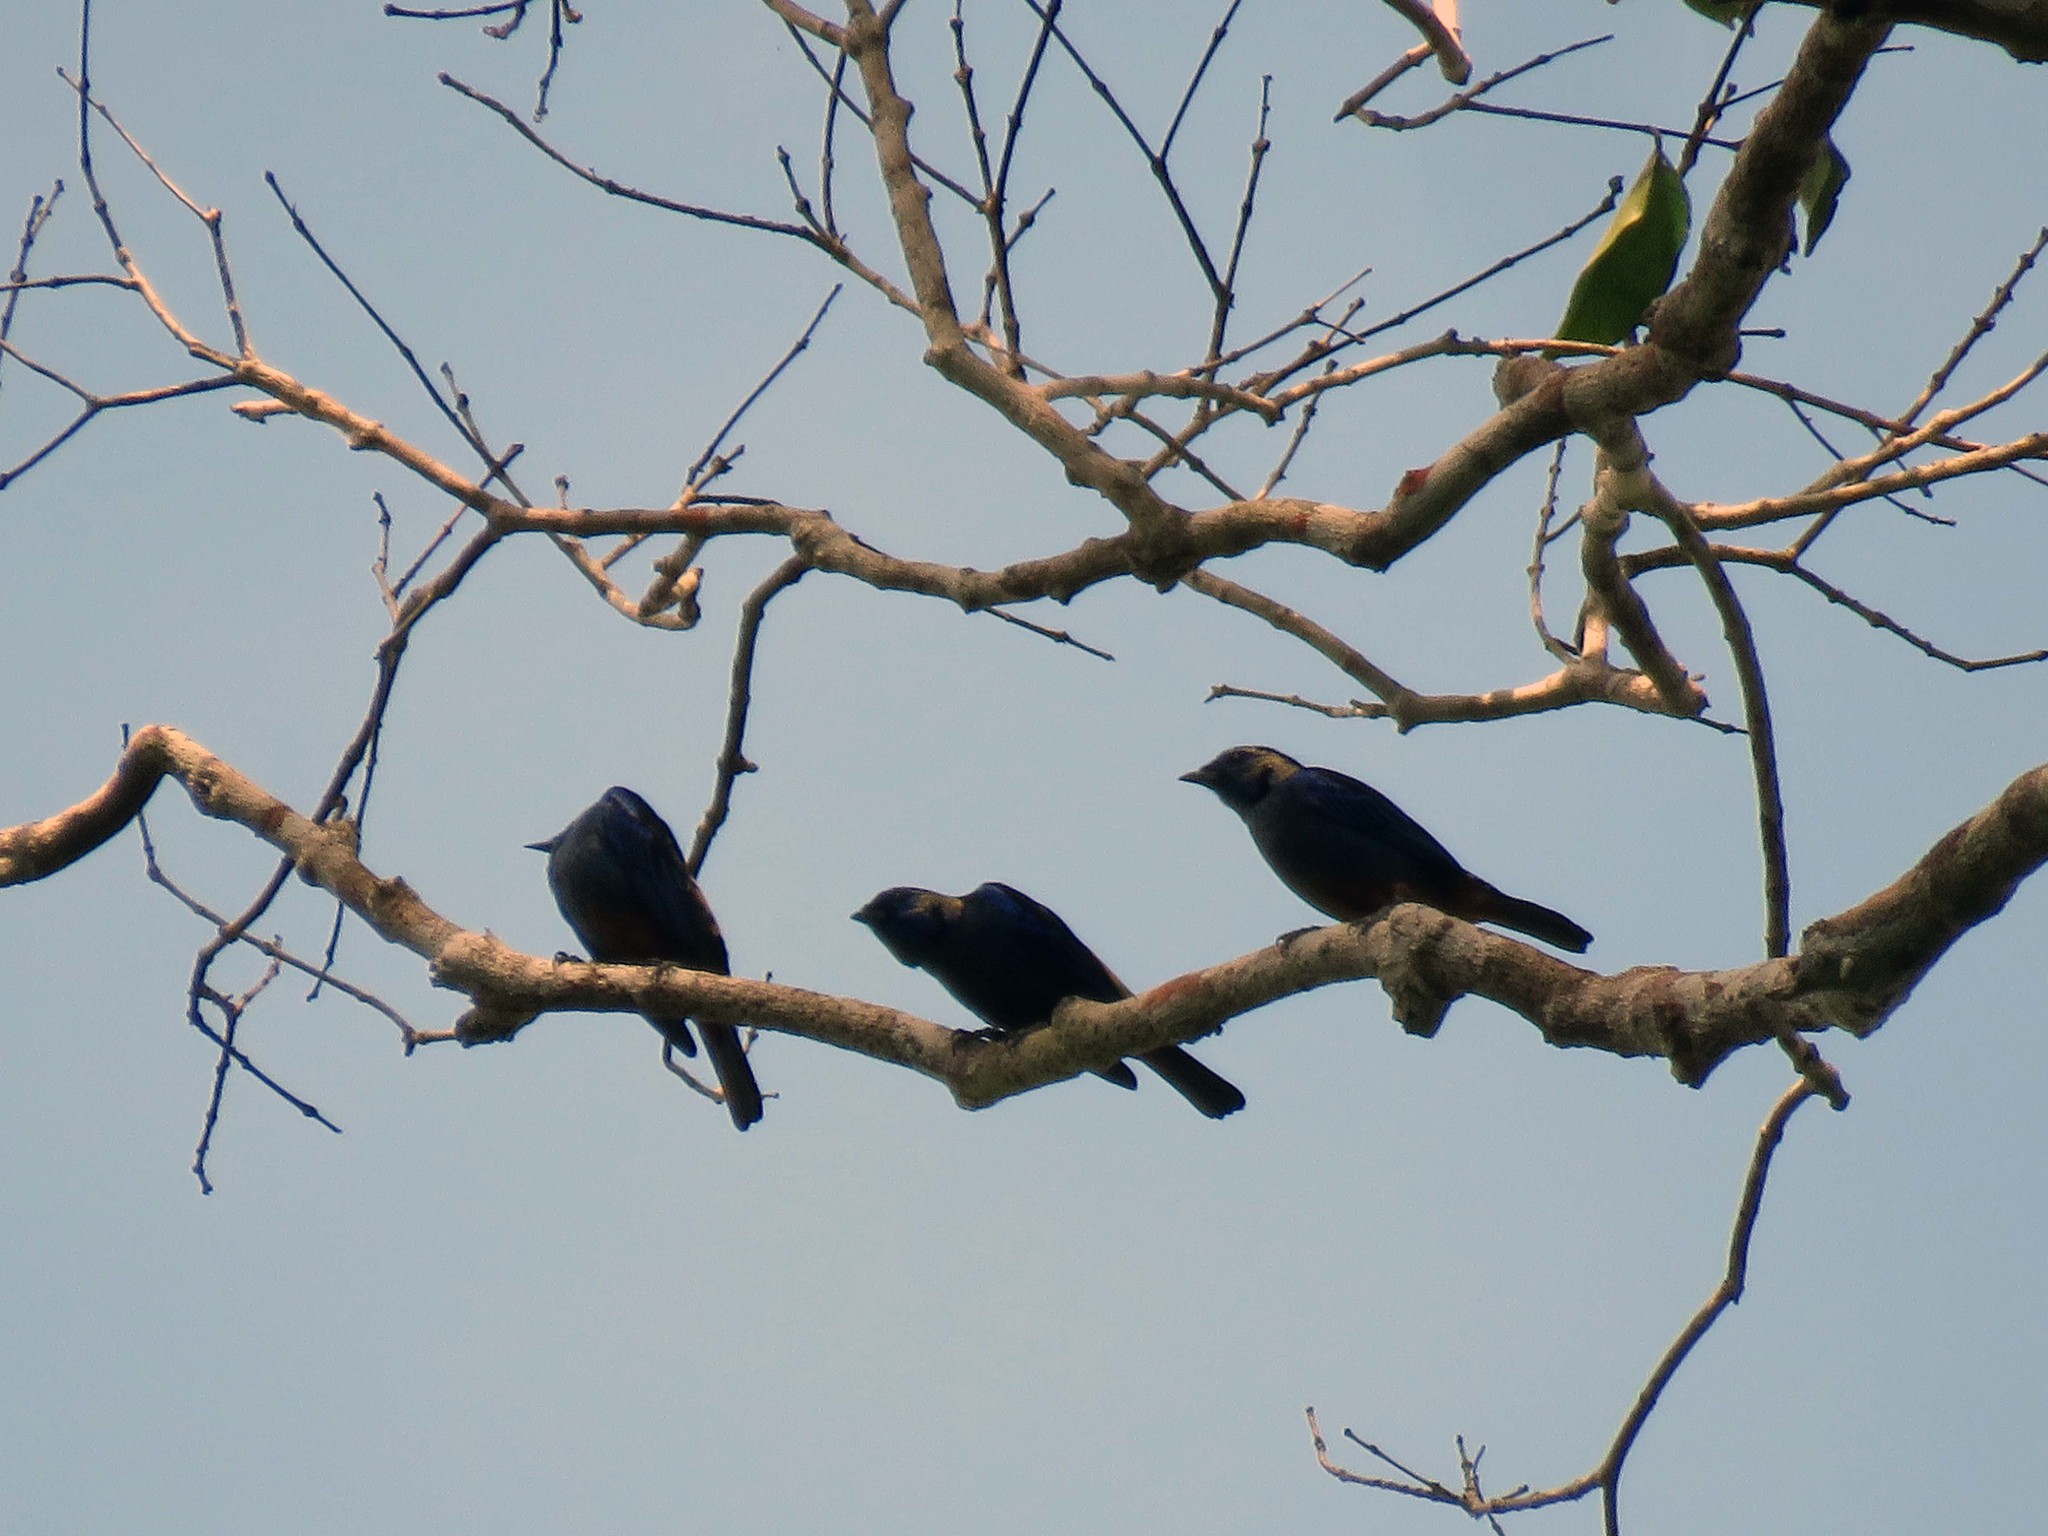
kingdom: Animalia
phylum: Chordata
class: Aves
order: Passeriformes
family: Thraupidae
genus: Tangara
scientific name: Tangara velia
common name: Opal-rumped tanager
